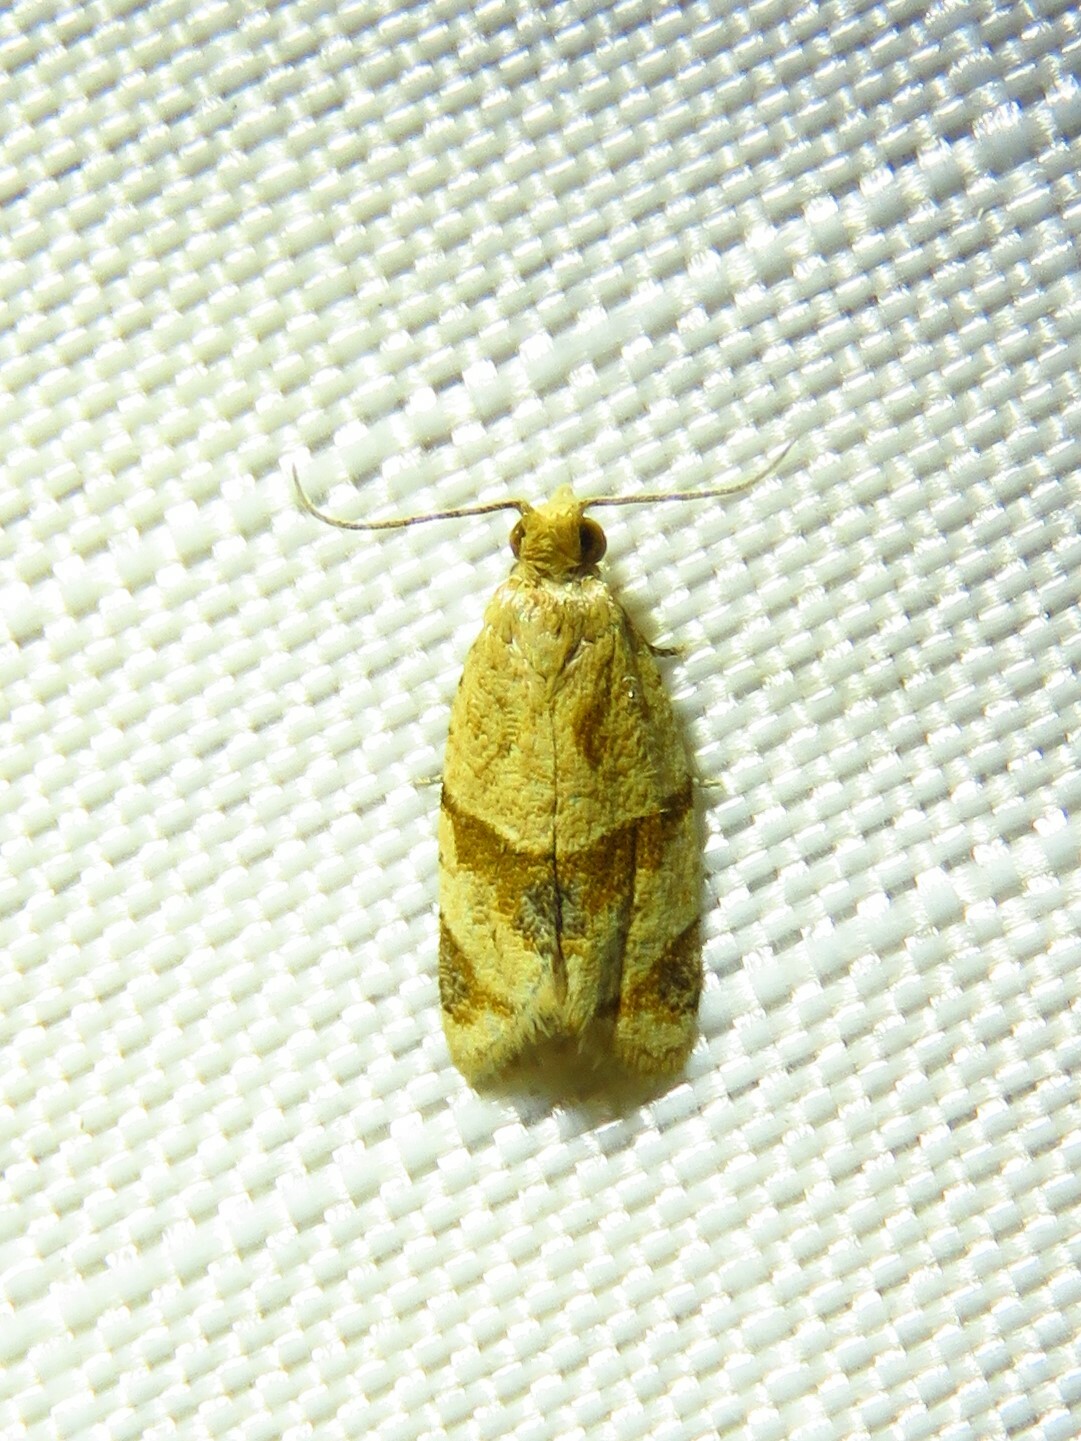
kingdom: Animalia
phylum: Arthropoda
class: Insecta
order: Lepidoptera
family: Tortricidae
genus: Clepsis
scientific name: Clepsis peritana
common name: Garden tortrix
